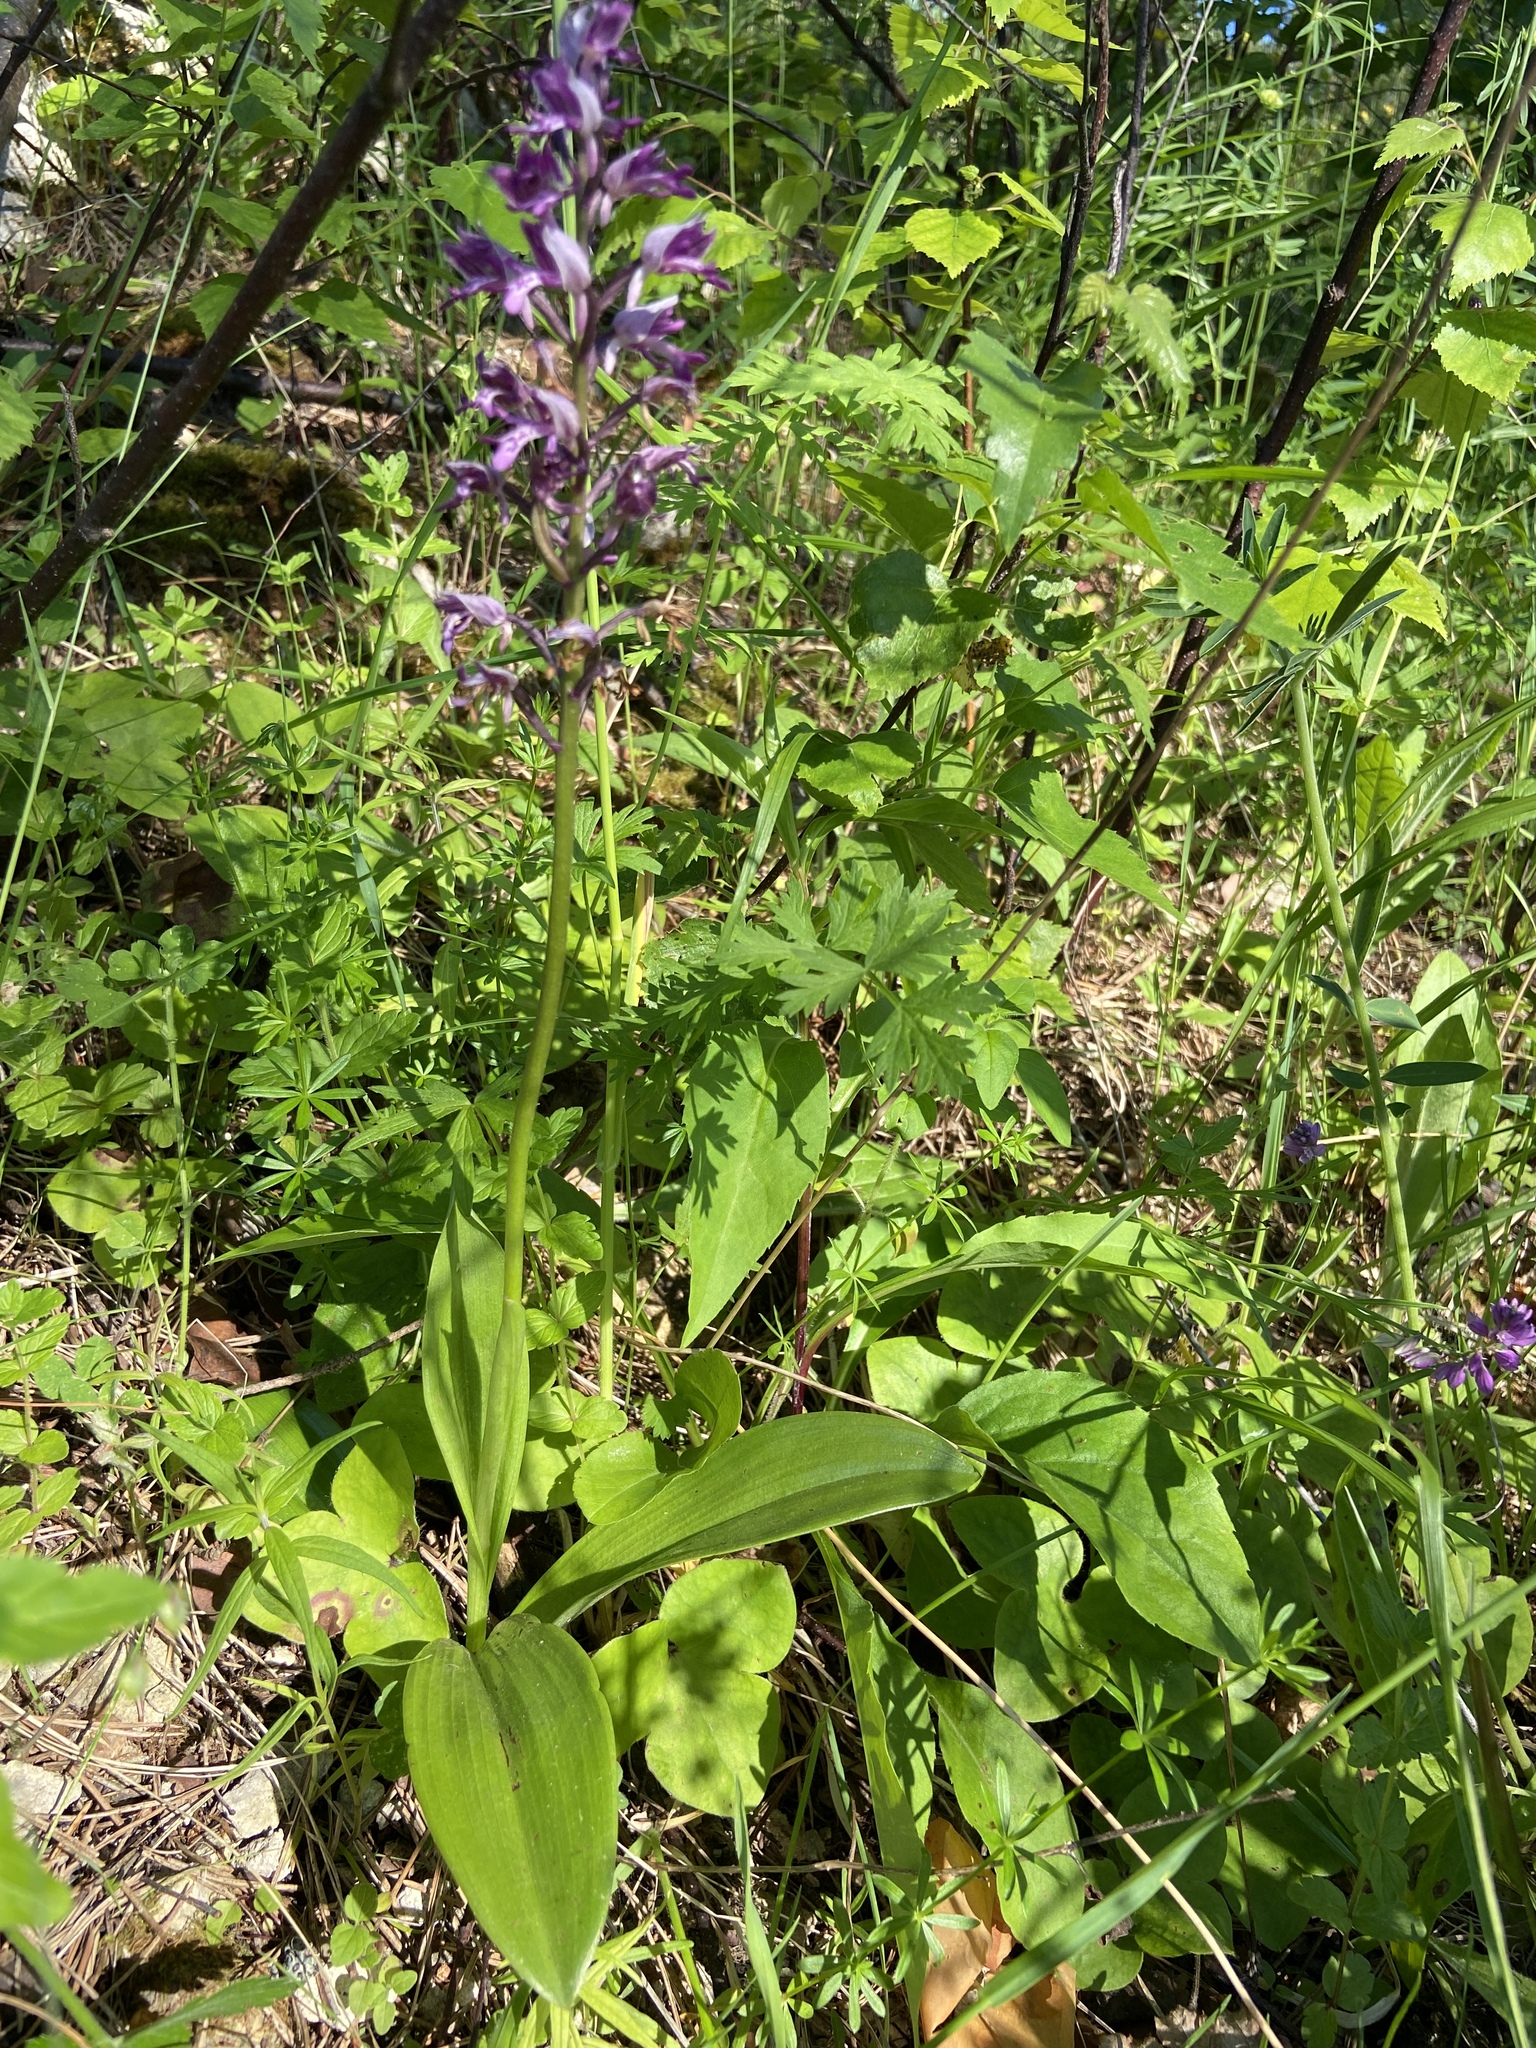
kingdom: Plantae
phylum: Tracheophyta
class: Liliopsida
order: Asparagales
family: Orchidaceae
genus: Orchis
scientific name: Orchis militaris
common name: Military orchid
